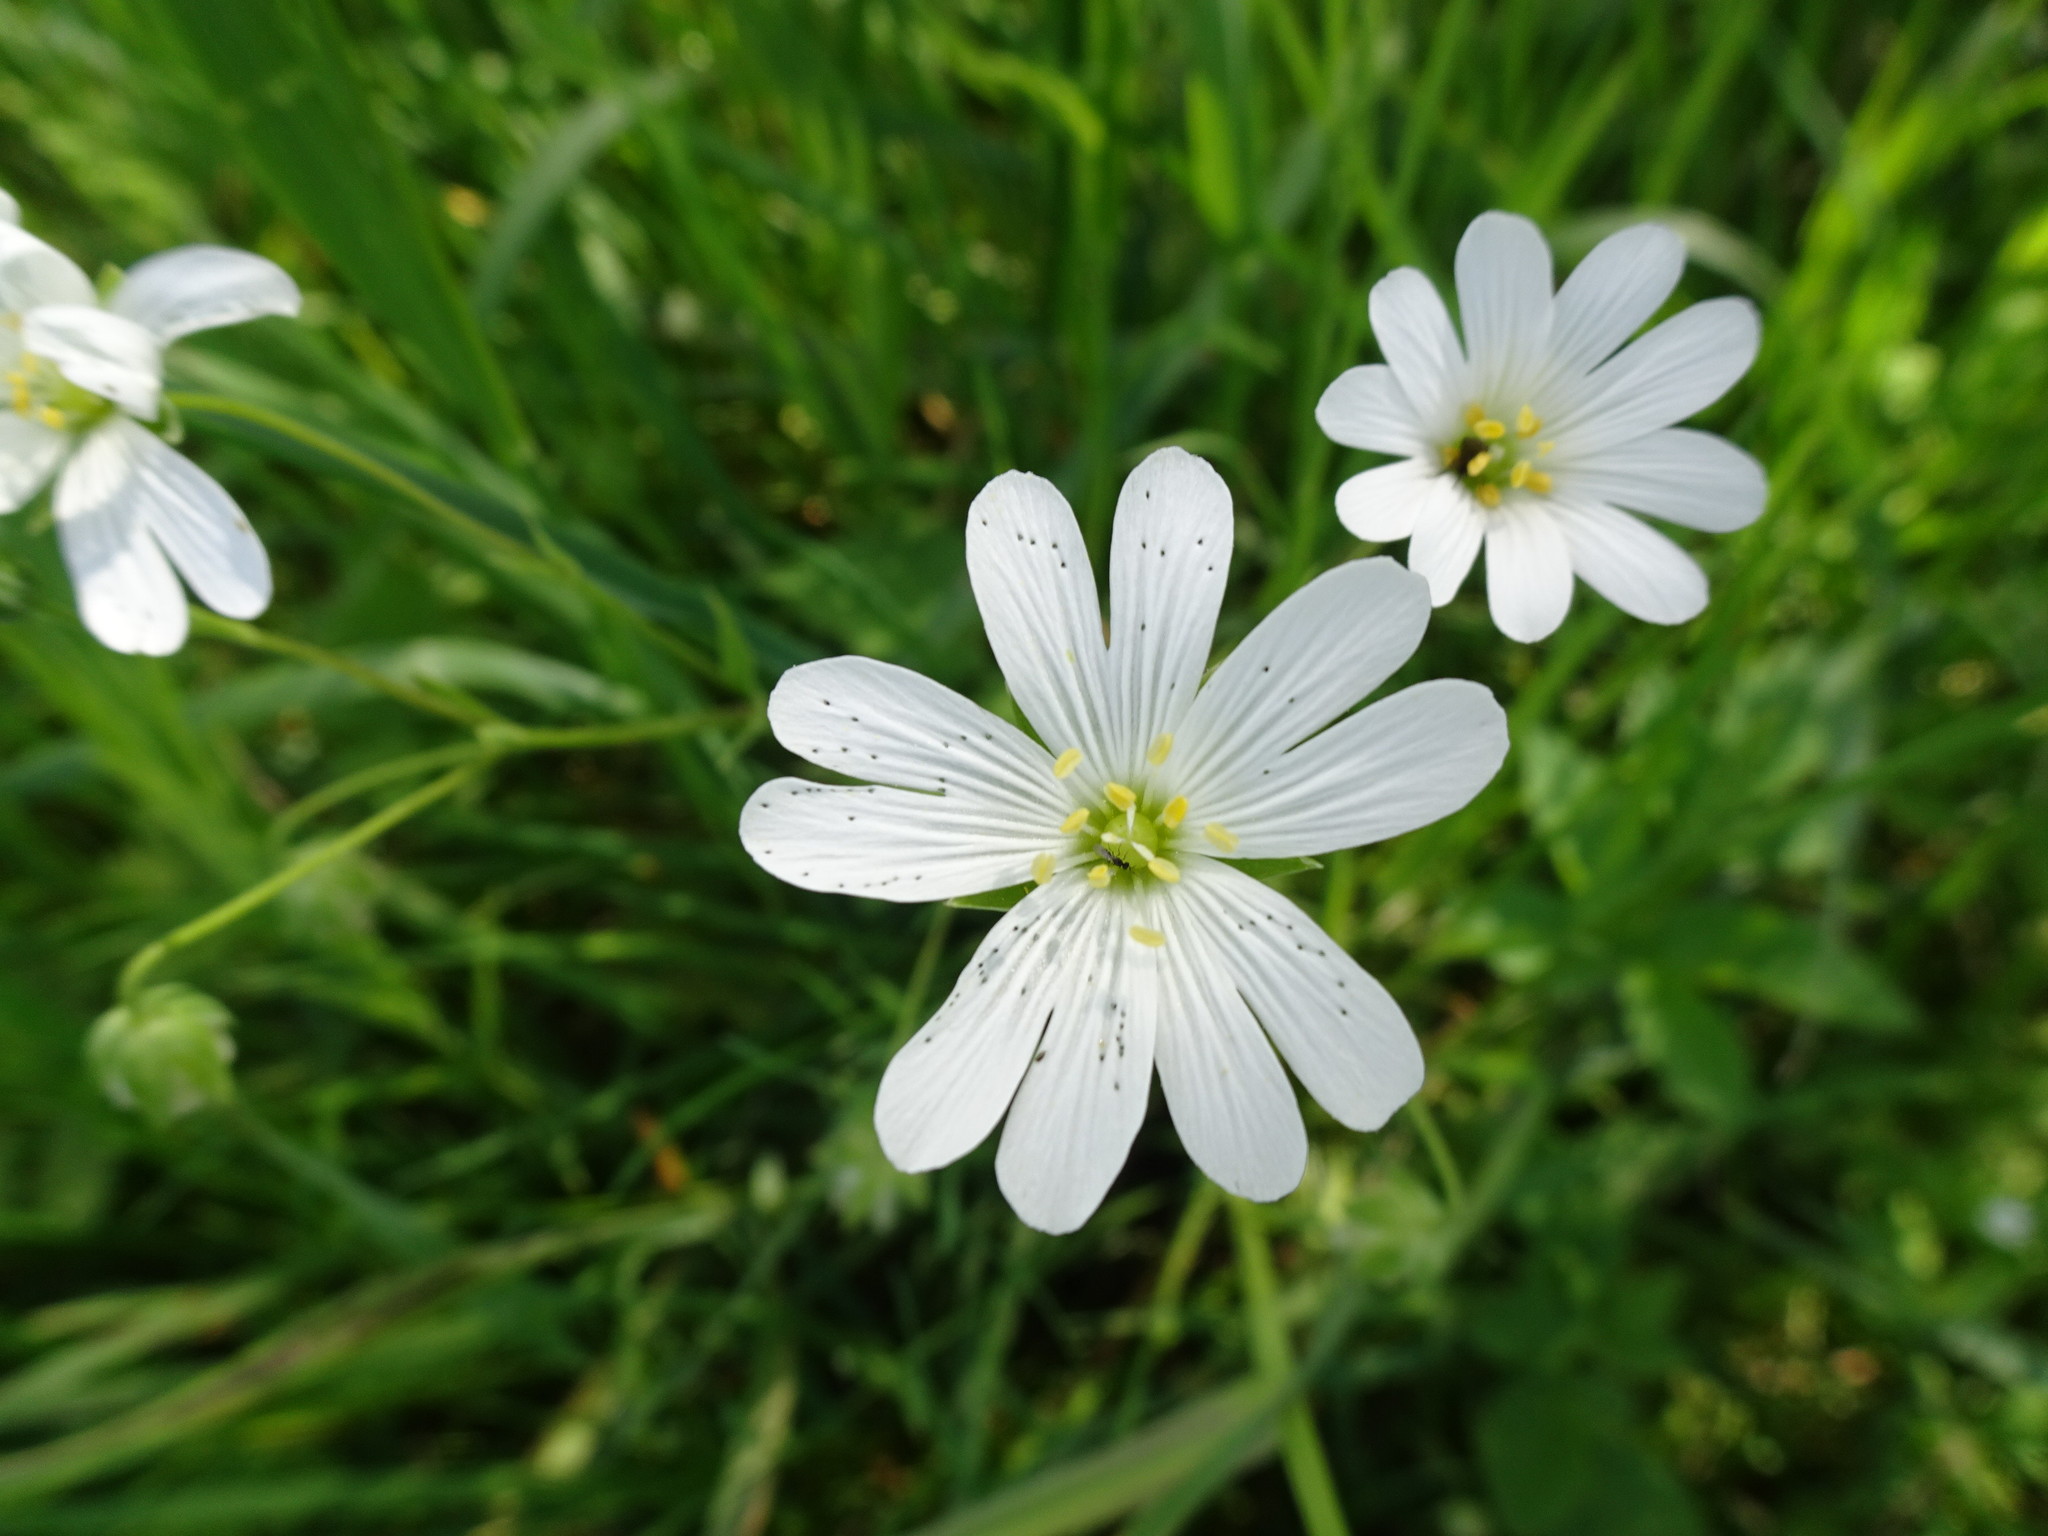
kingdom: Plantae
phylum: Tracheophyta
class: Magnoliopsida
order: Caryophyllales
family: Caryophyllaceae
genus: Rabelera
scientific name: Rabelera holostea
